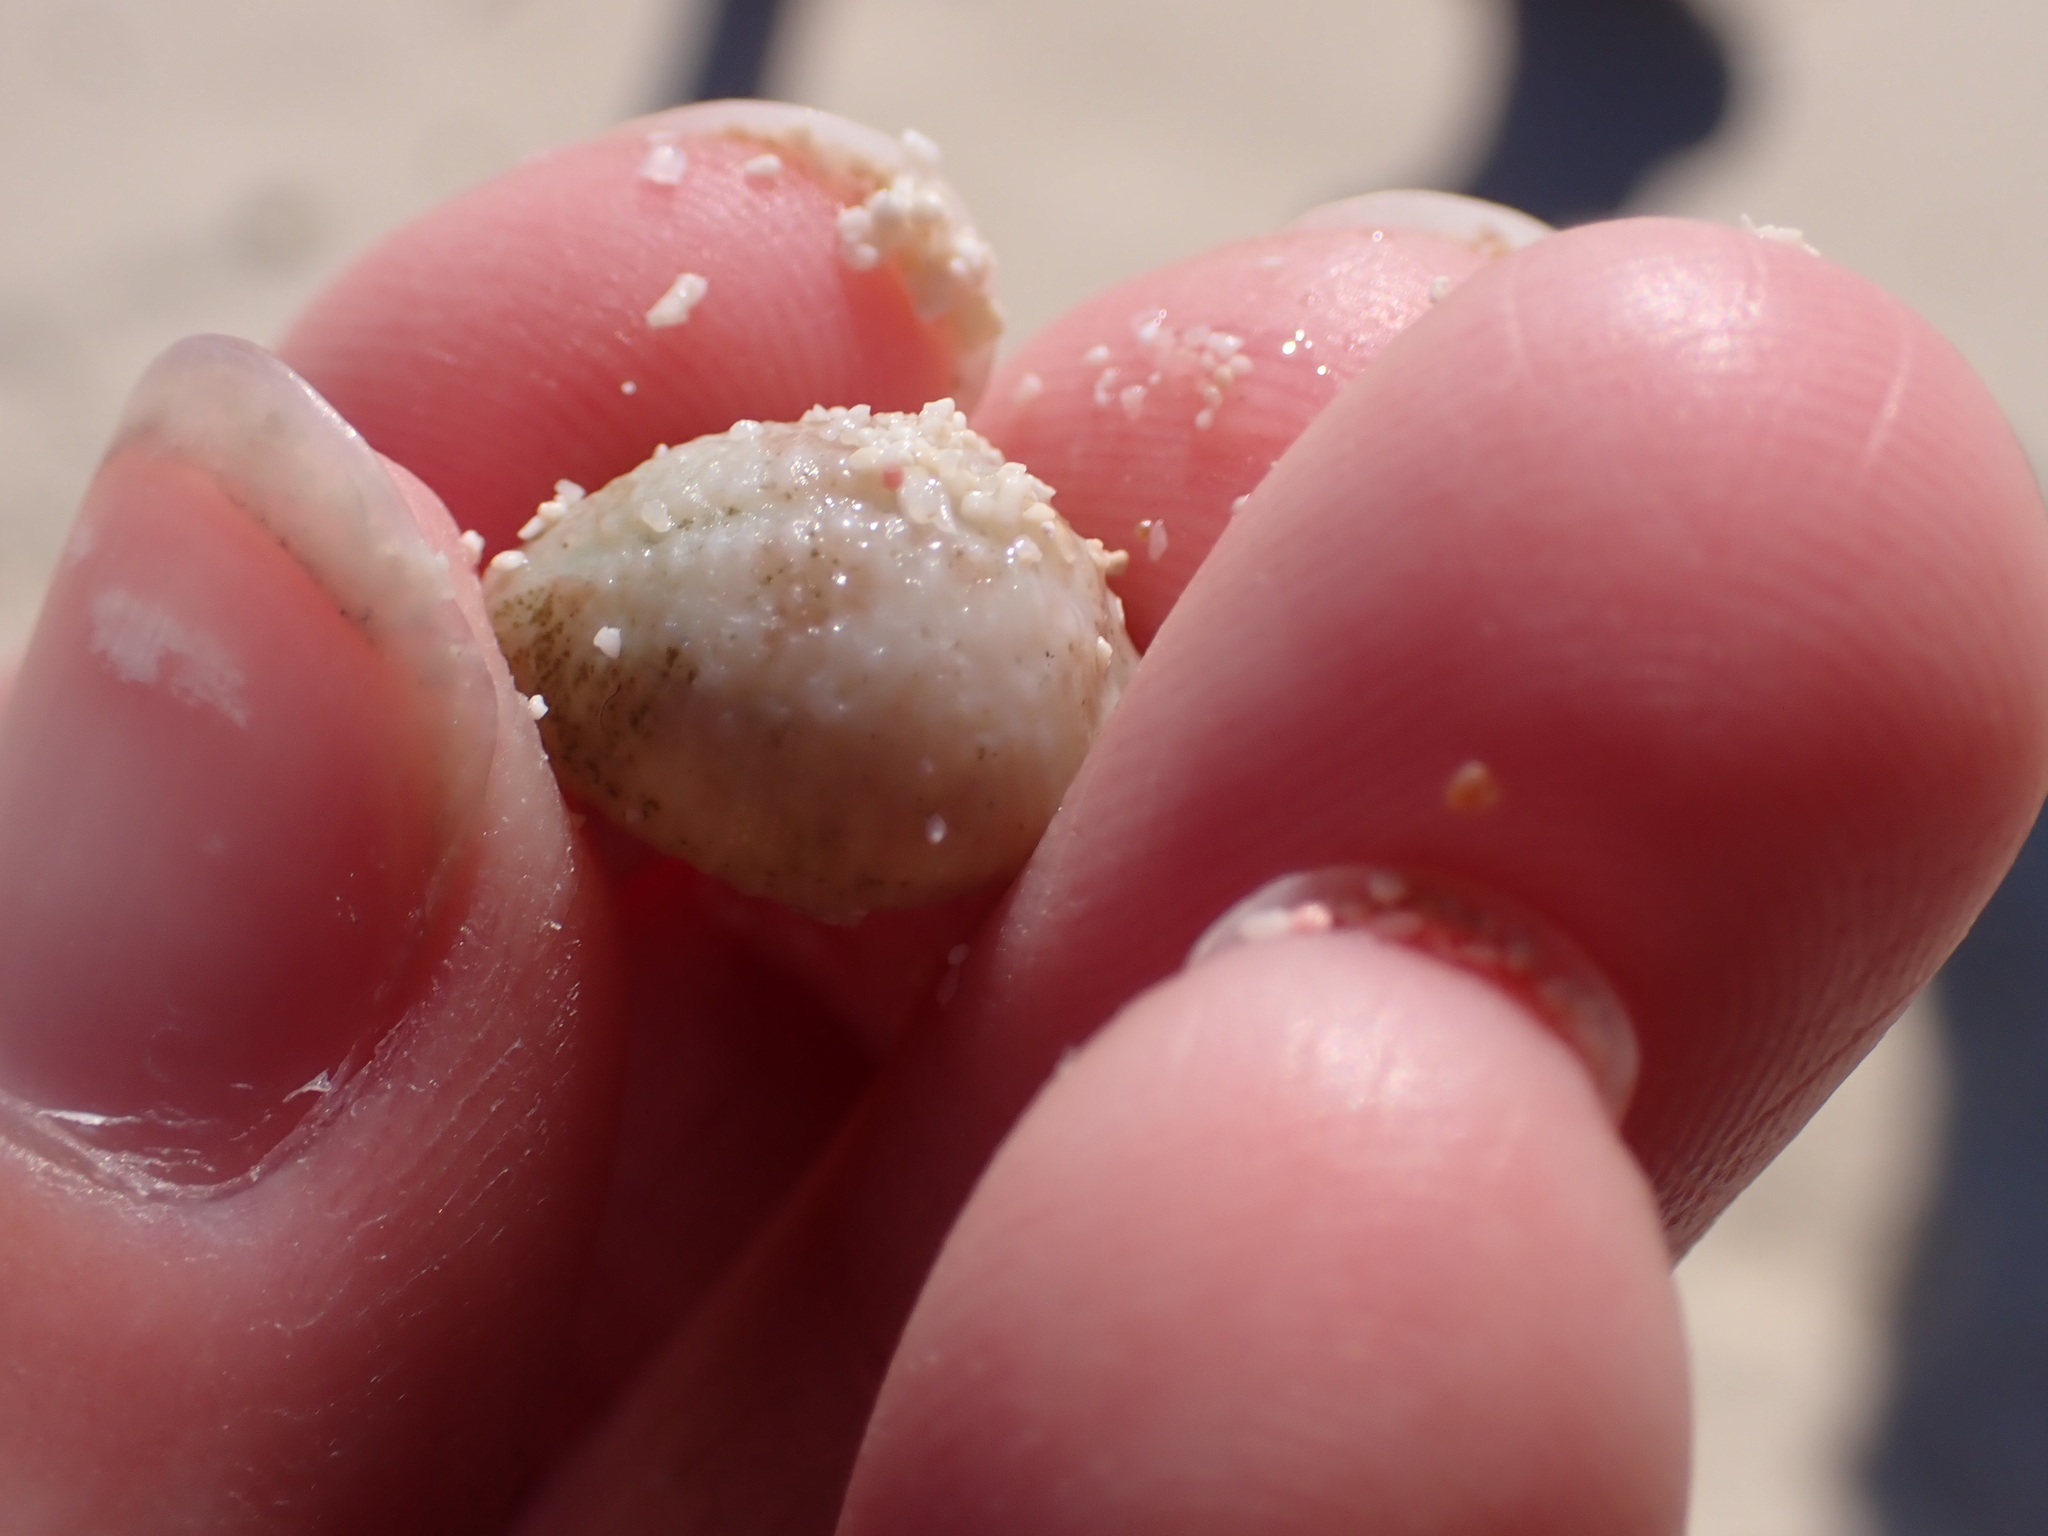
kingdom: Animalia
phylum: Mollusca
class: Gastropoda
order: Littorinimorpha
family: Triviidae
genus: Pusula
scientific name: Pusula pediculus
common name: Coffee bean trivia
